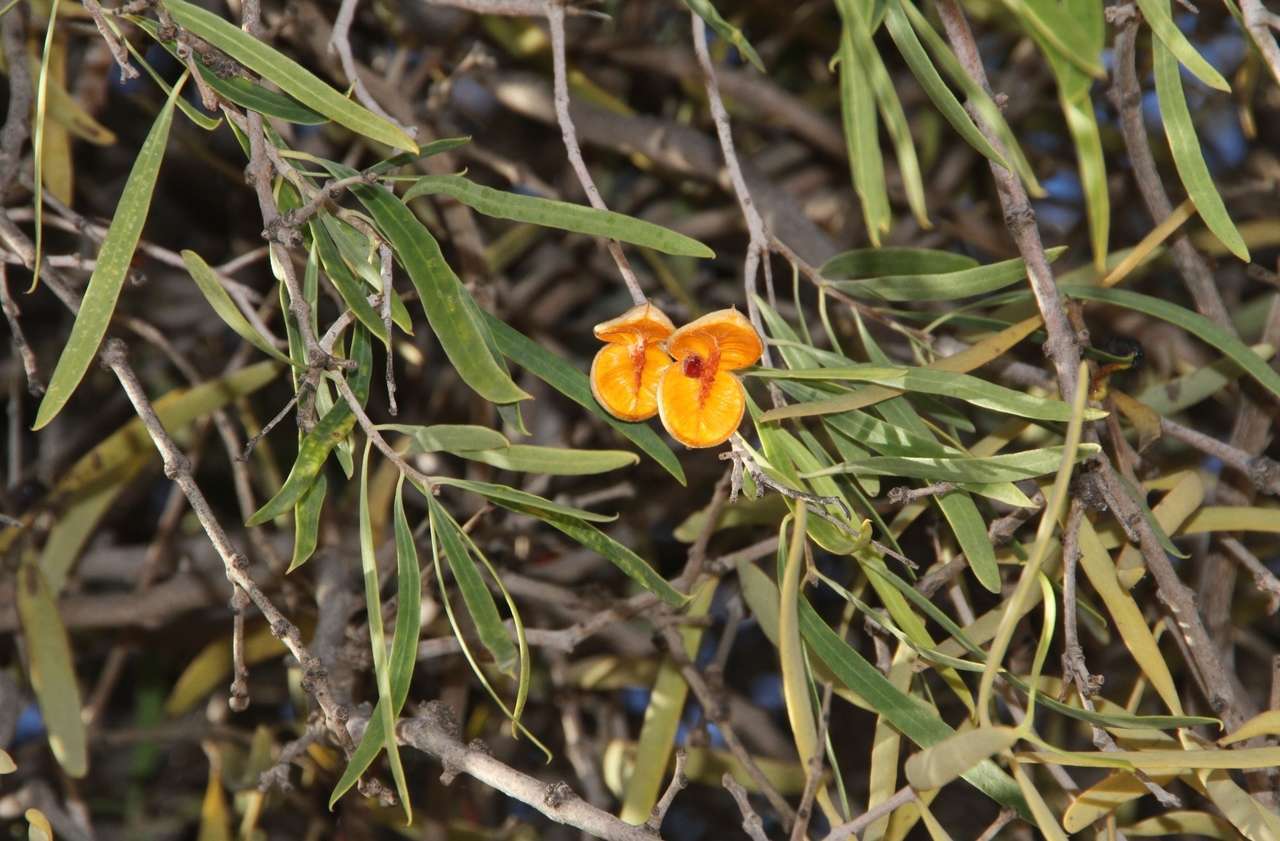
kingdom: Plantae
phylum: Tracheophyta
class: Magnoliopsida
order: Apiales
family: Pittosporaceae
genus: Pittosporum
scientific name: Pittosporum angustifolium
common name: Weeping pittosporum
